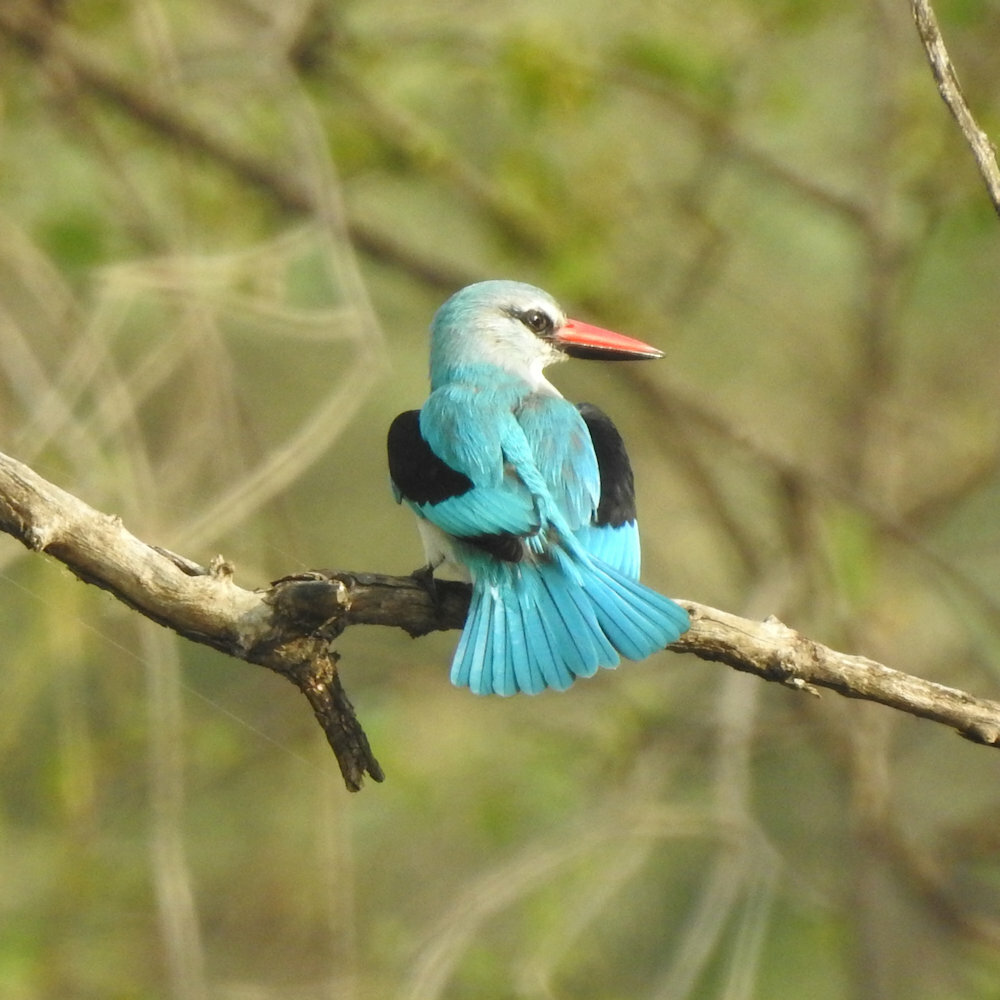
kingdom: Animalia
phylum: Chordata
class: Aves
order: Coraciiformes
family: Alcedinidae
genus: Halcyon
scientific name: Halcyon senegalensis
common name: Woodland kingfisher
